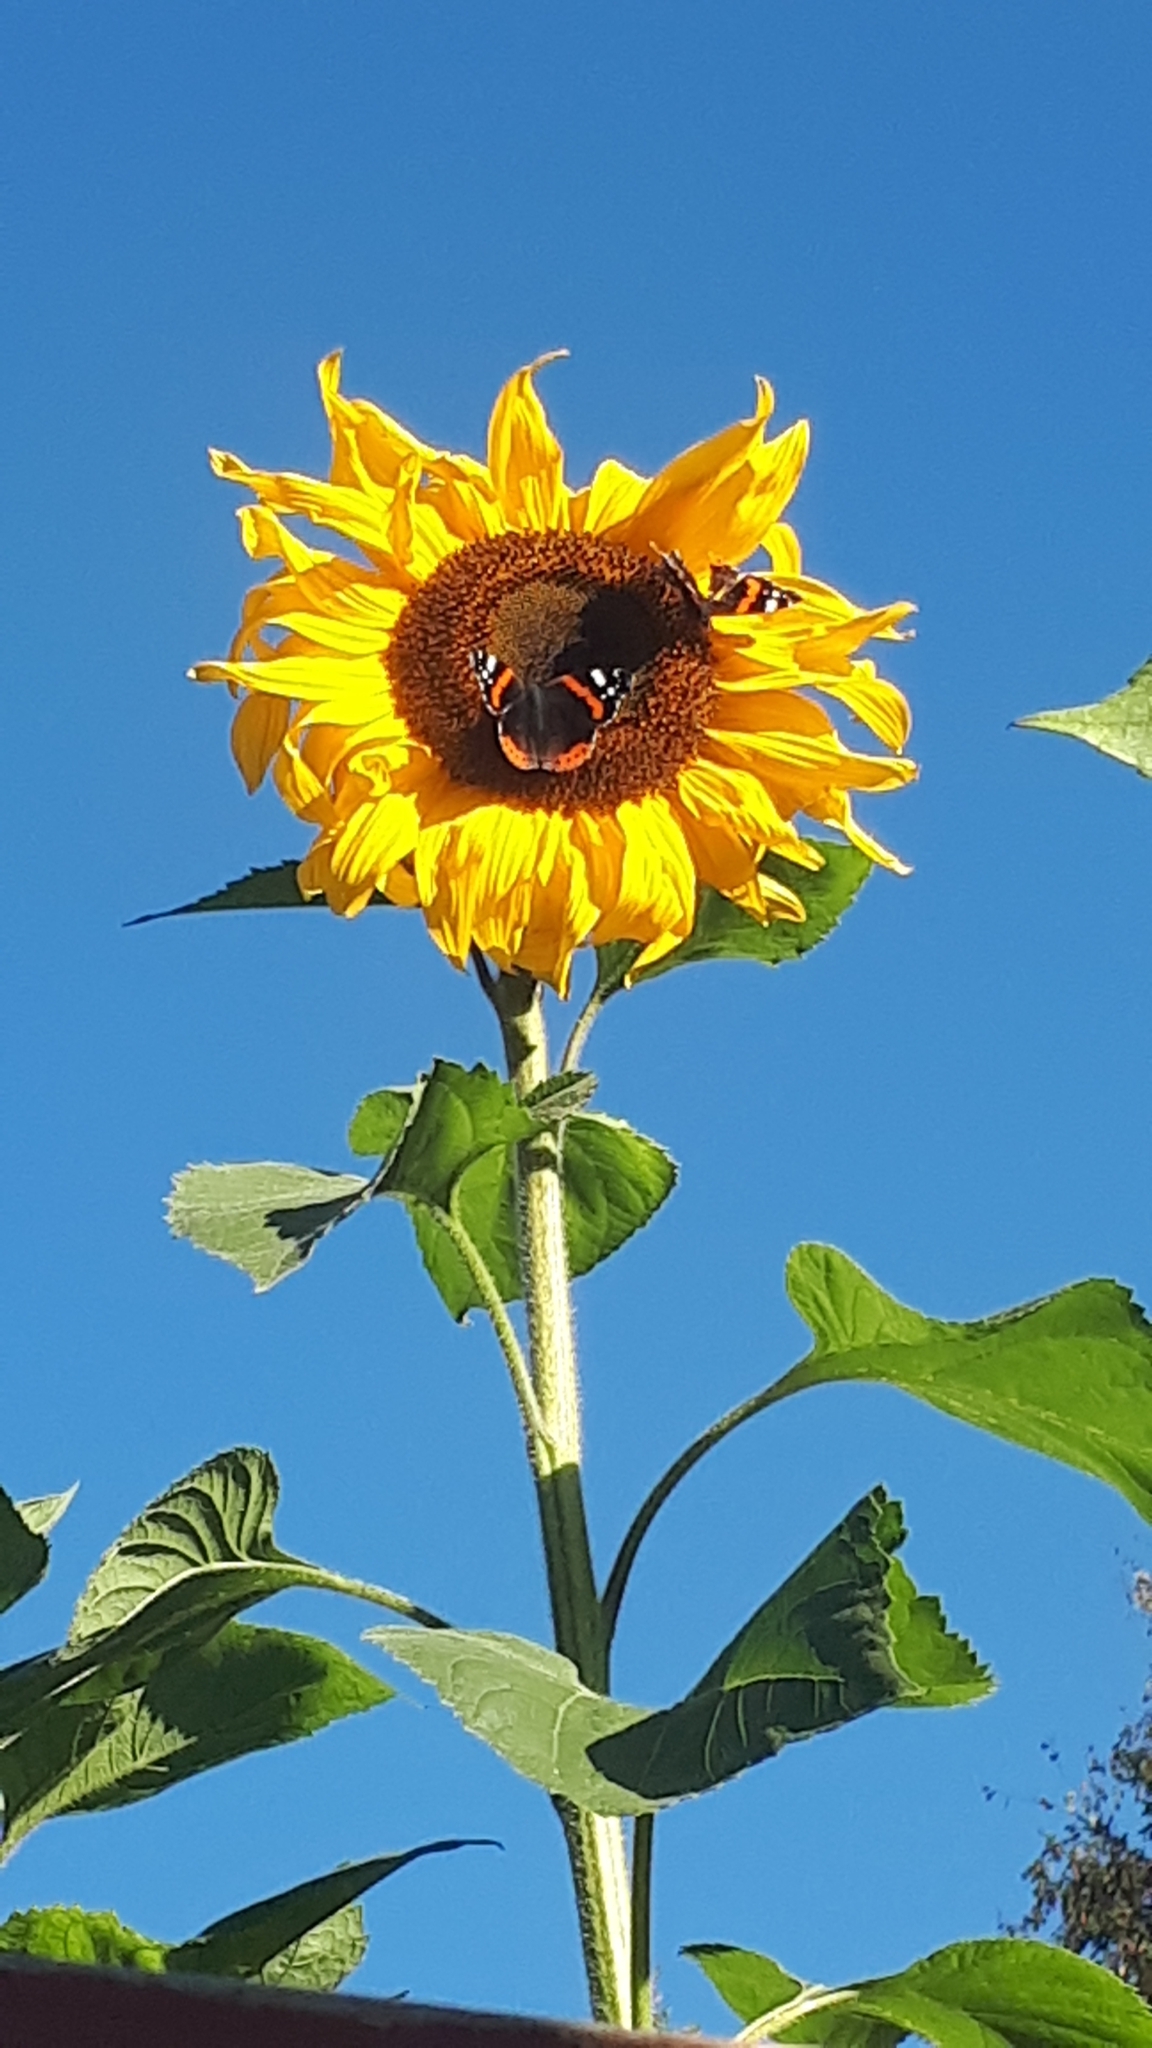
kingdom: Animalia
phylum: Arthropoda
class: Insecta
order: Lepidoptera
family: Nymphalidae
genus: Vanessa
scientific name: Vanessa atalanta
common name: Red admiral
